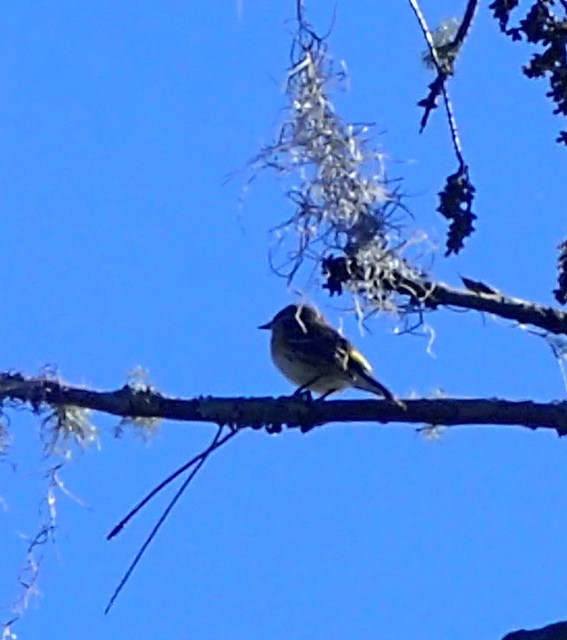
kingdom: Animalia
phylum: Chordata
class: Aves
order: Passeriformes
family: Parulidae
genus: Setophaga
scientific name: Setophaga coronata
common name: Myrtle warbler
